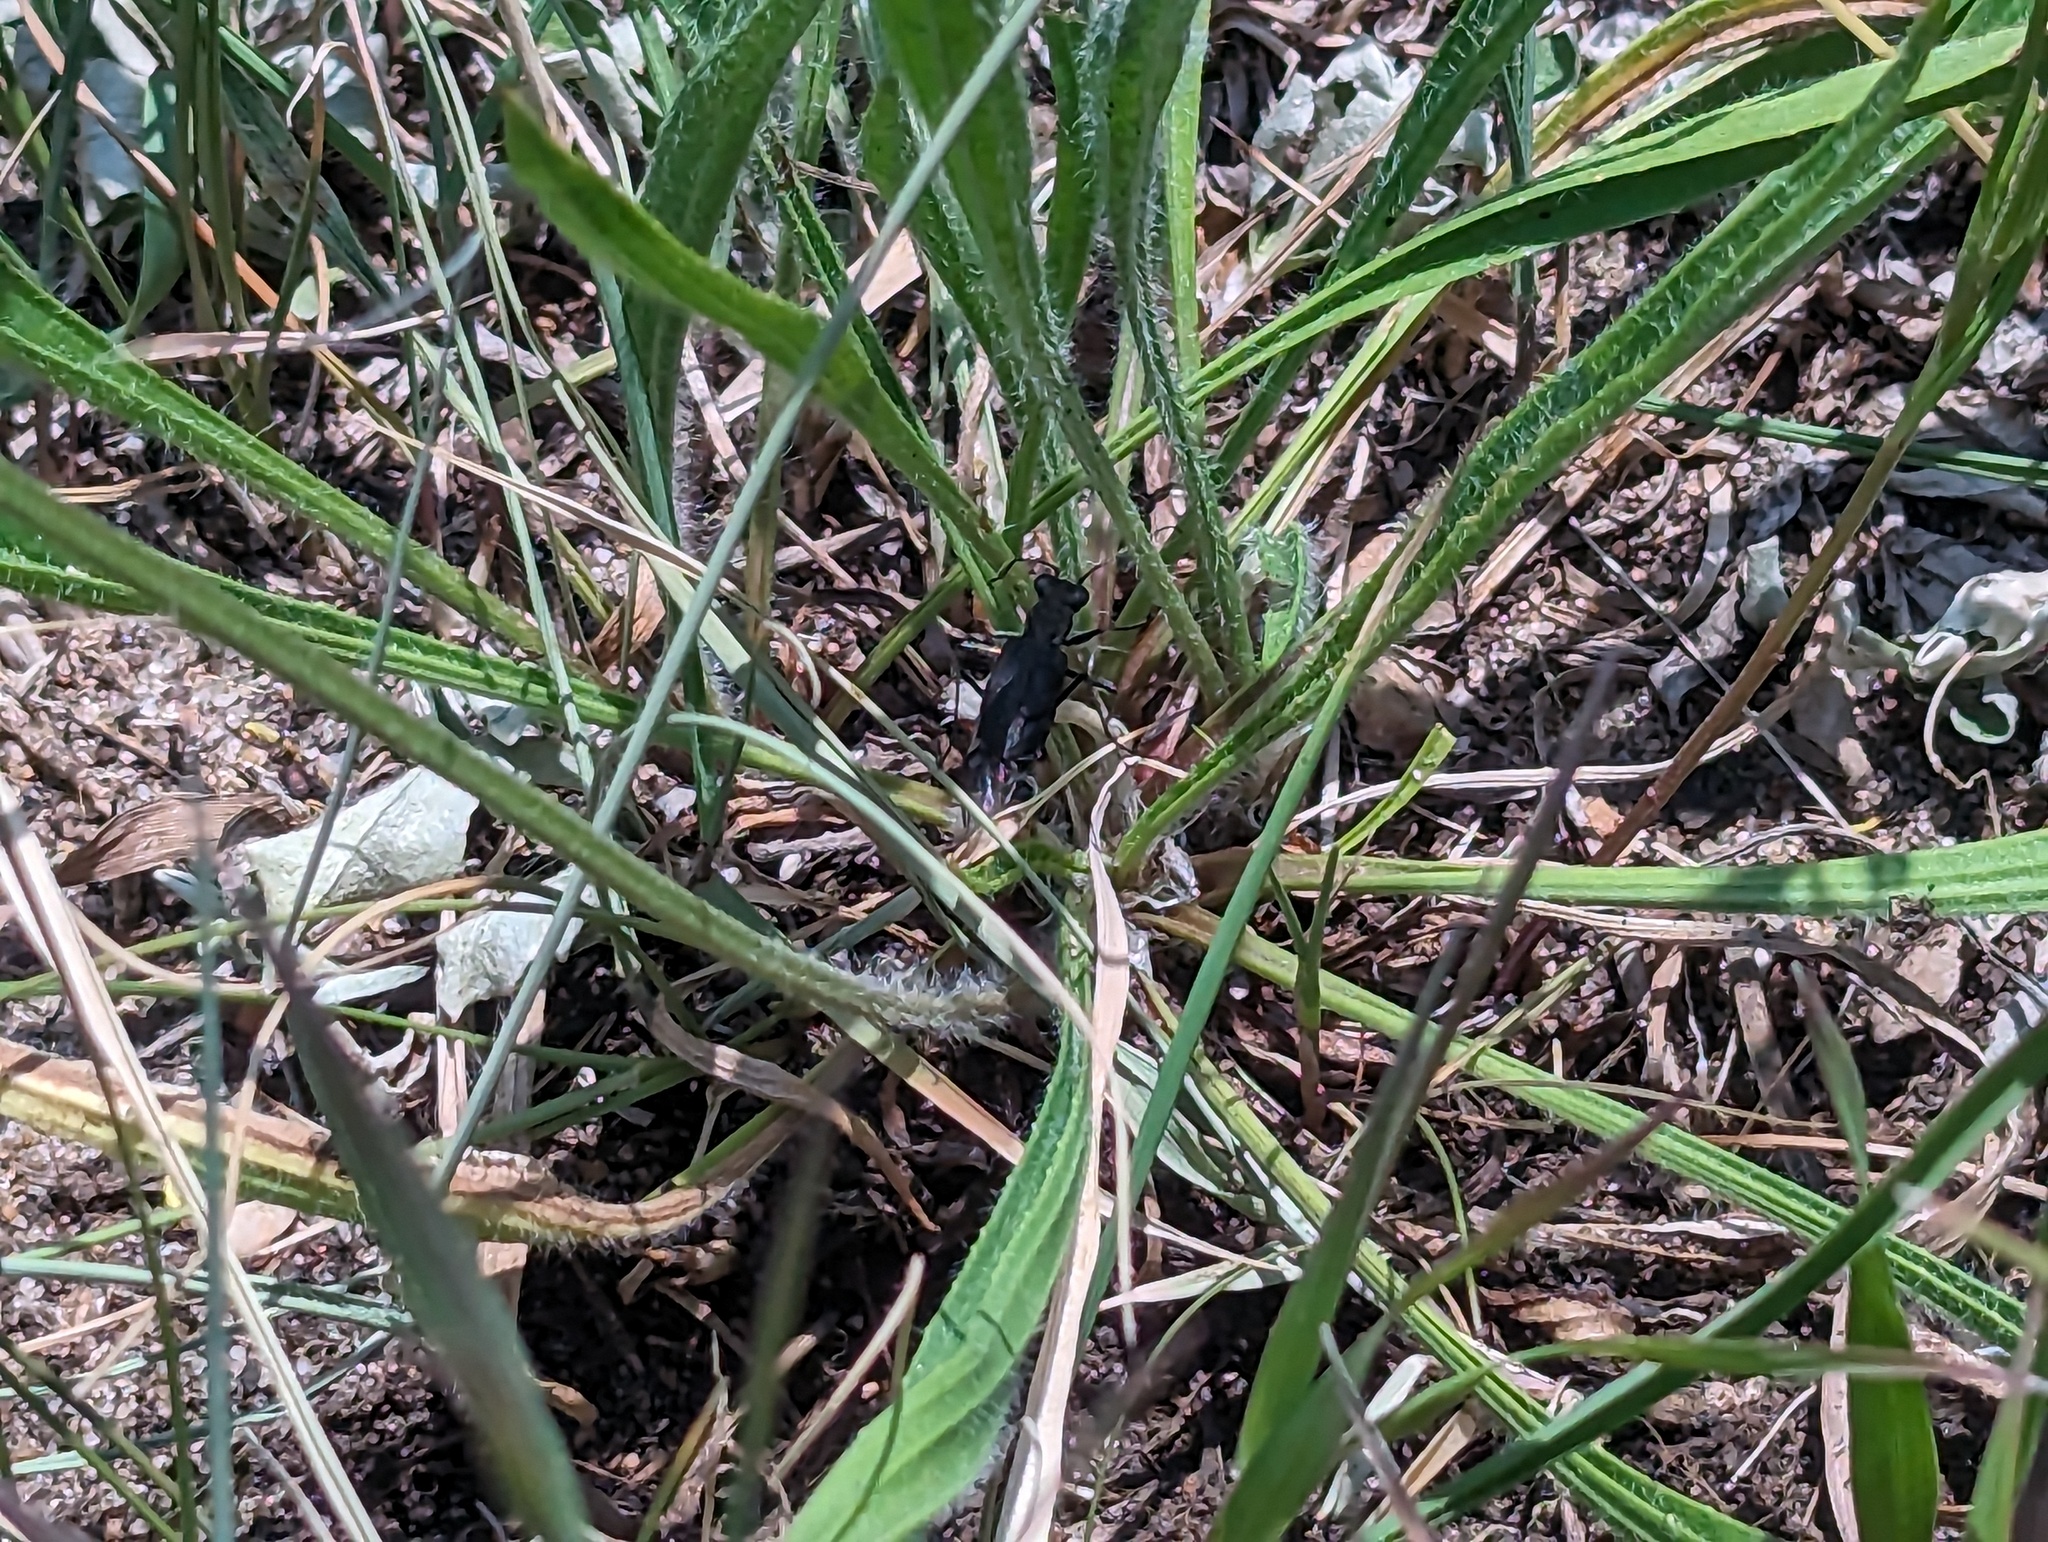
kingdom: Animalia
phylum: Arthropoda
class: Insecta
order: Coleoptera
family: Carabidae
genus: Cicindela
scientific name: Cicindela punctulata
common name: Punctured tiger beetle
